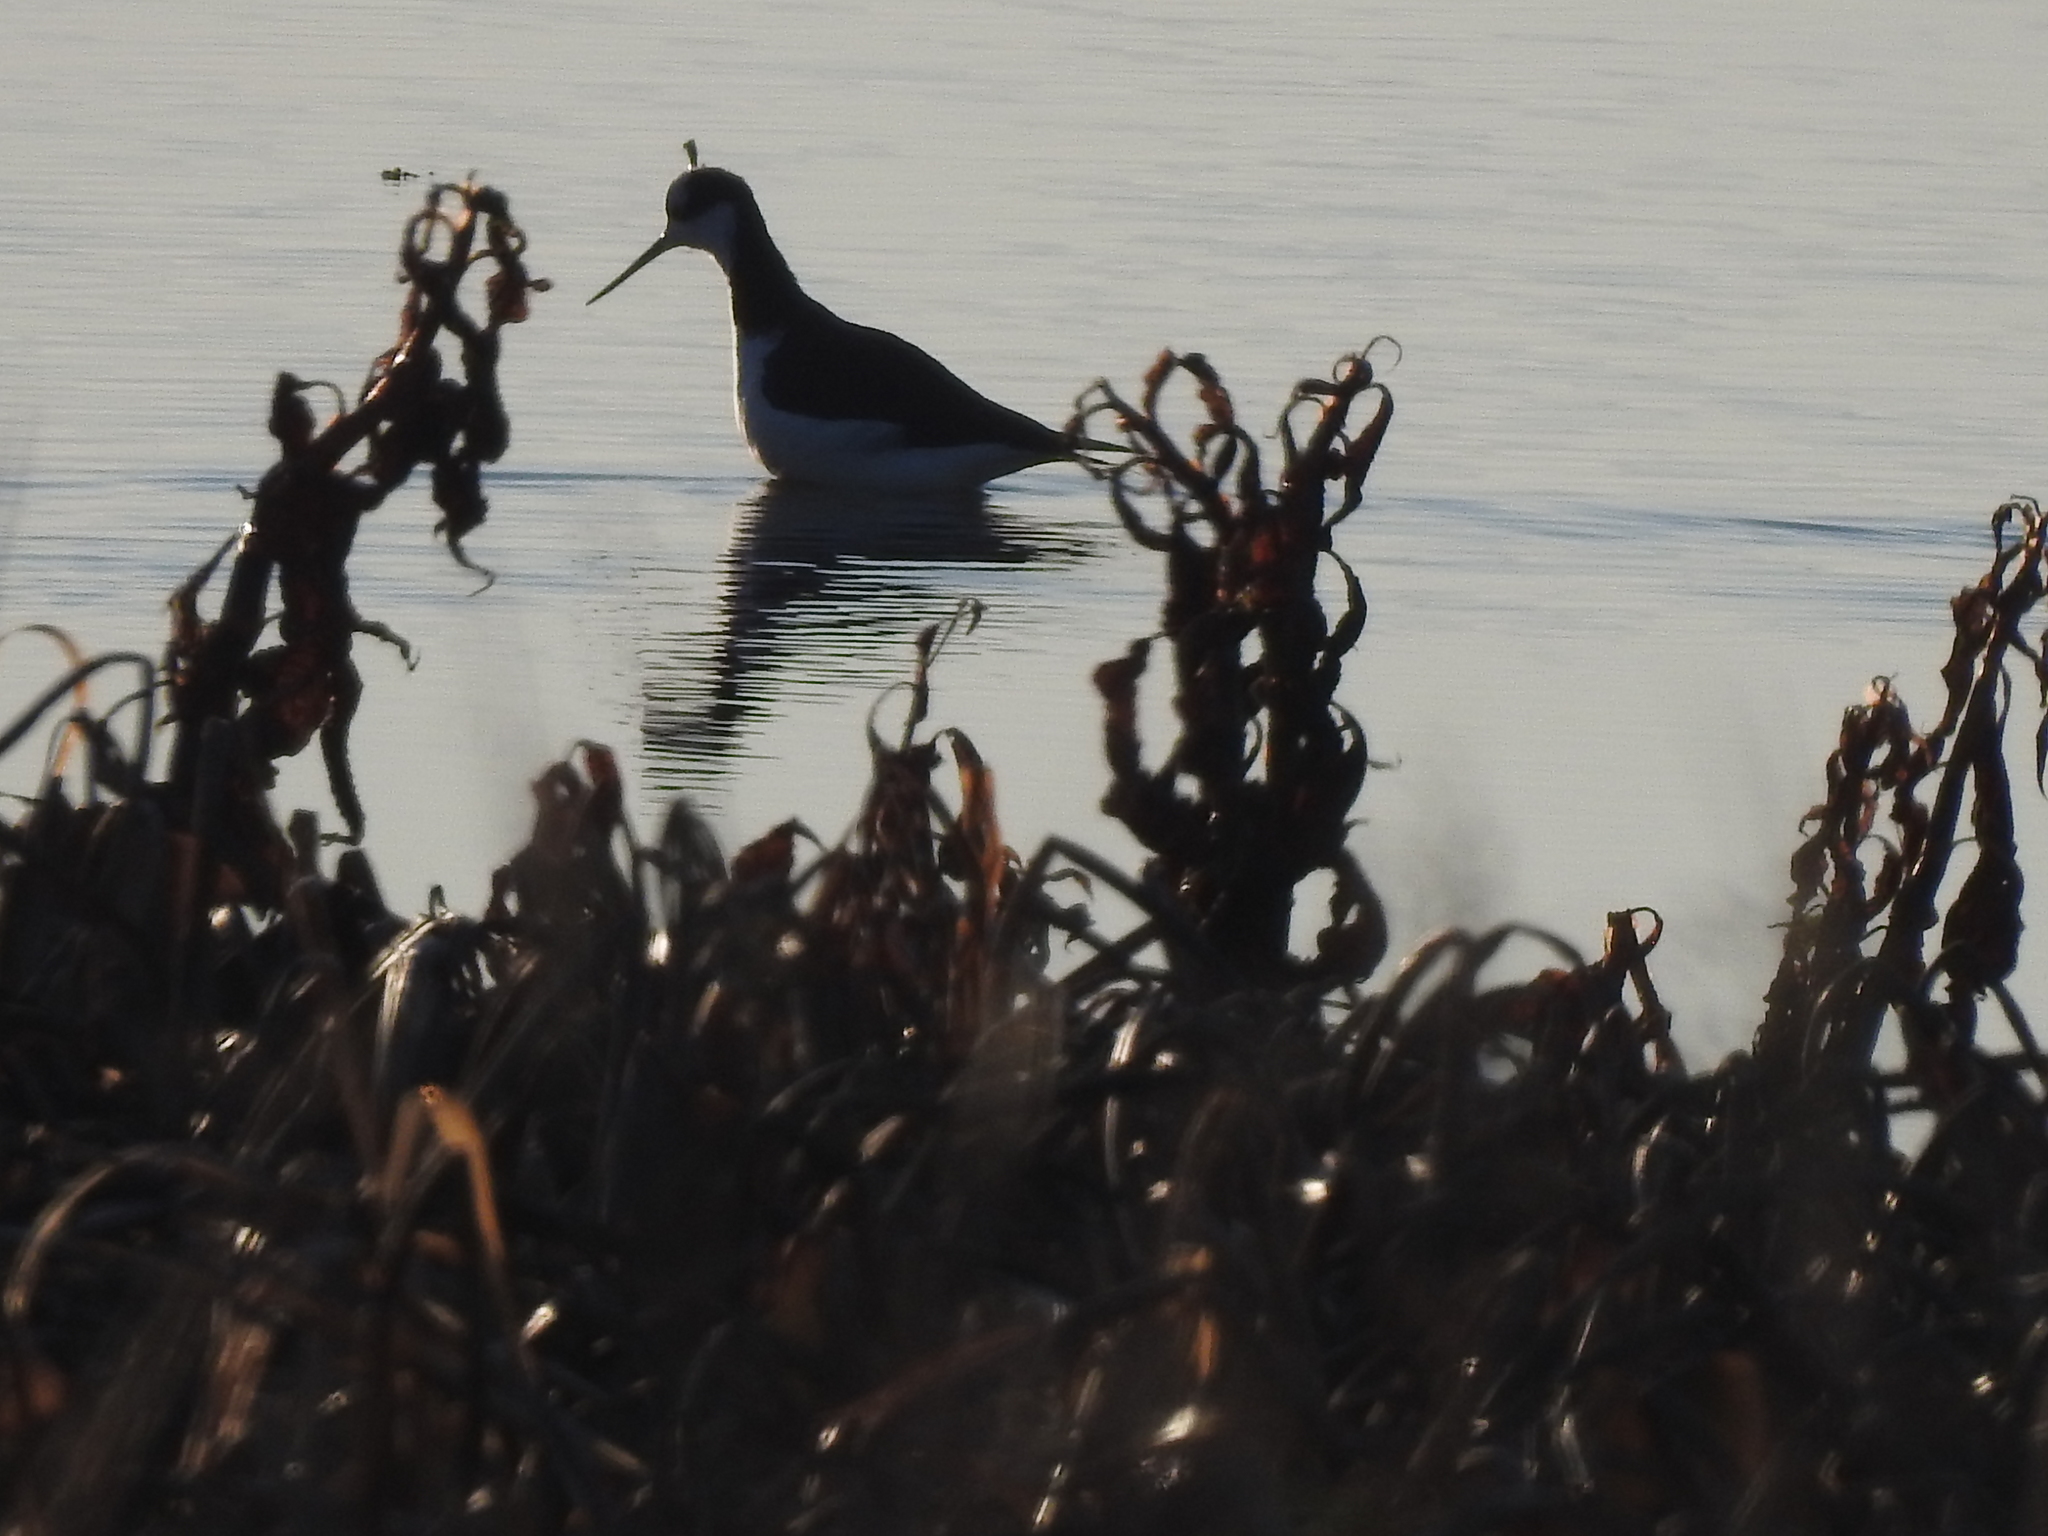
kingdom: Animalia
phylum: Chordata
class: Aves
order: Charadriiformes
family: Recurvirostridae
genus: Himantopus
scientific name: Himantopus mexicanus
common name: Black-necked stilt
